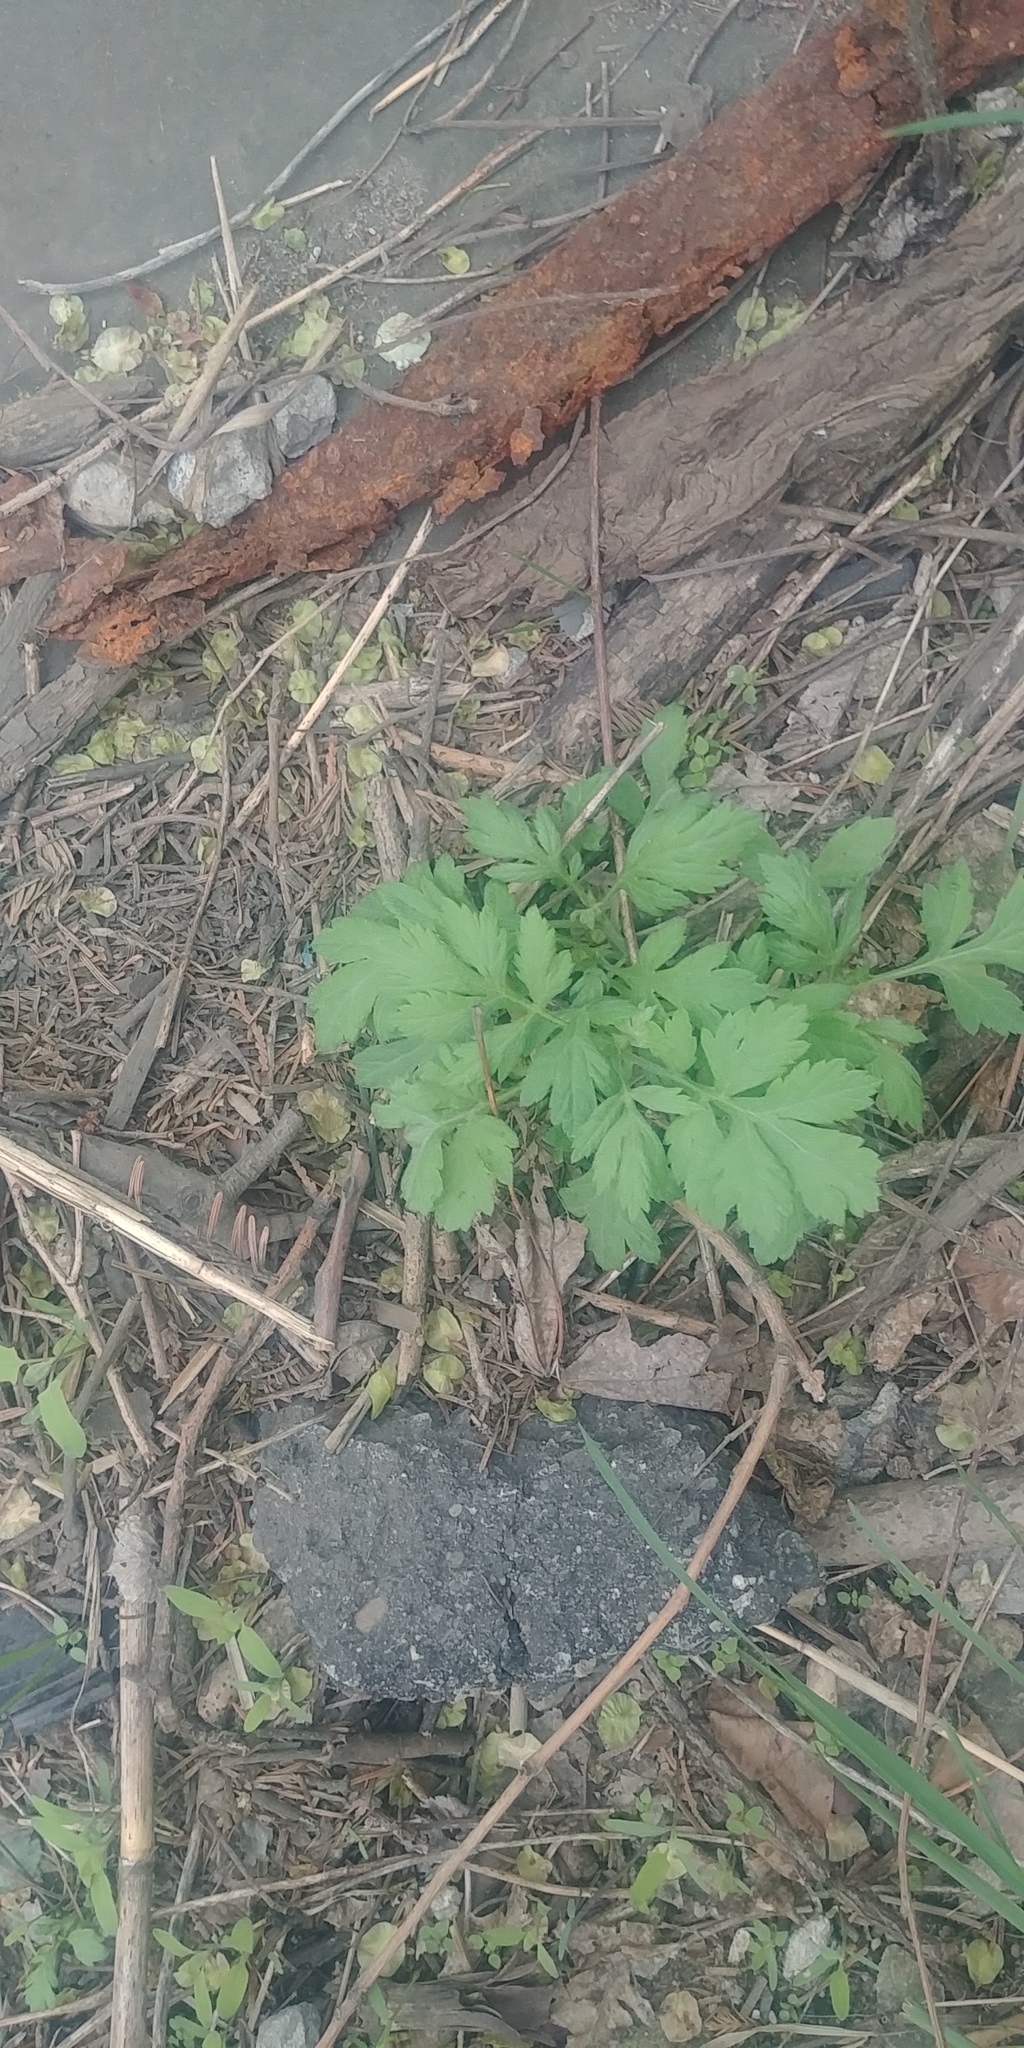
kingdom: Plantae
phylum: Tracheophyta
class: Magnoliopsida
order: Asterales
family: Asteraceae
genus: Artemisia
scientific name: Artemisia vulgaris
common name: Mugwort
